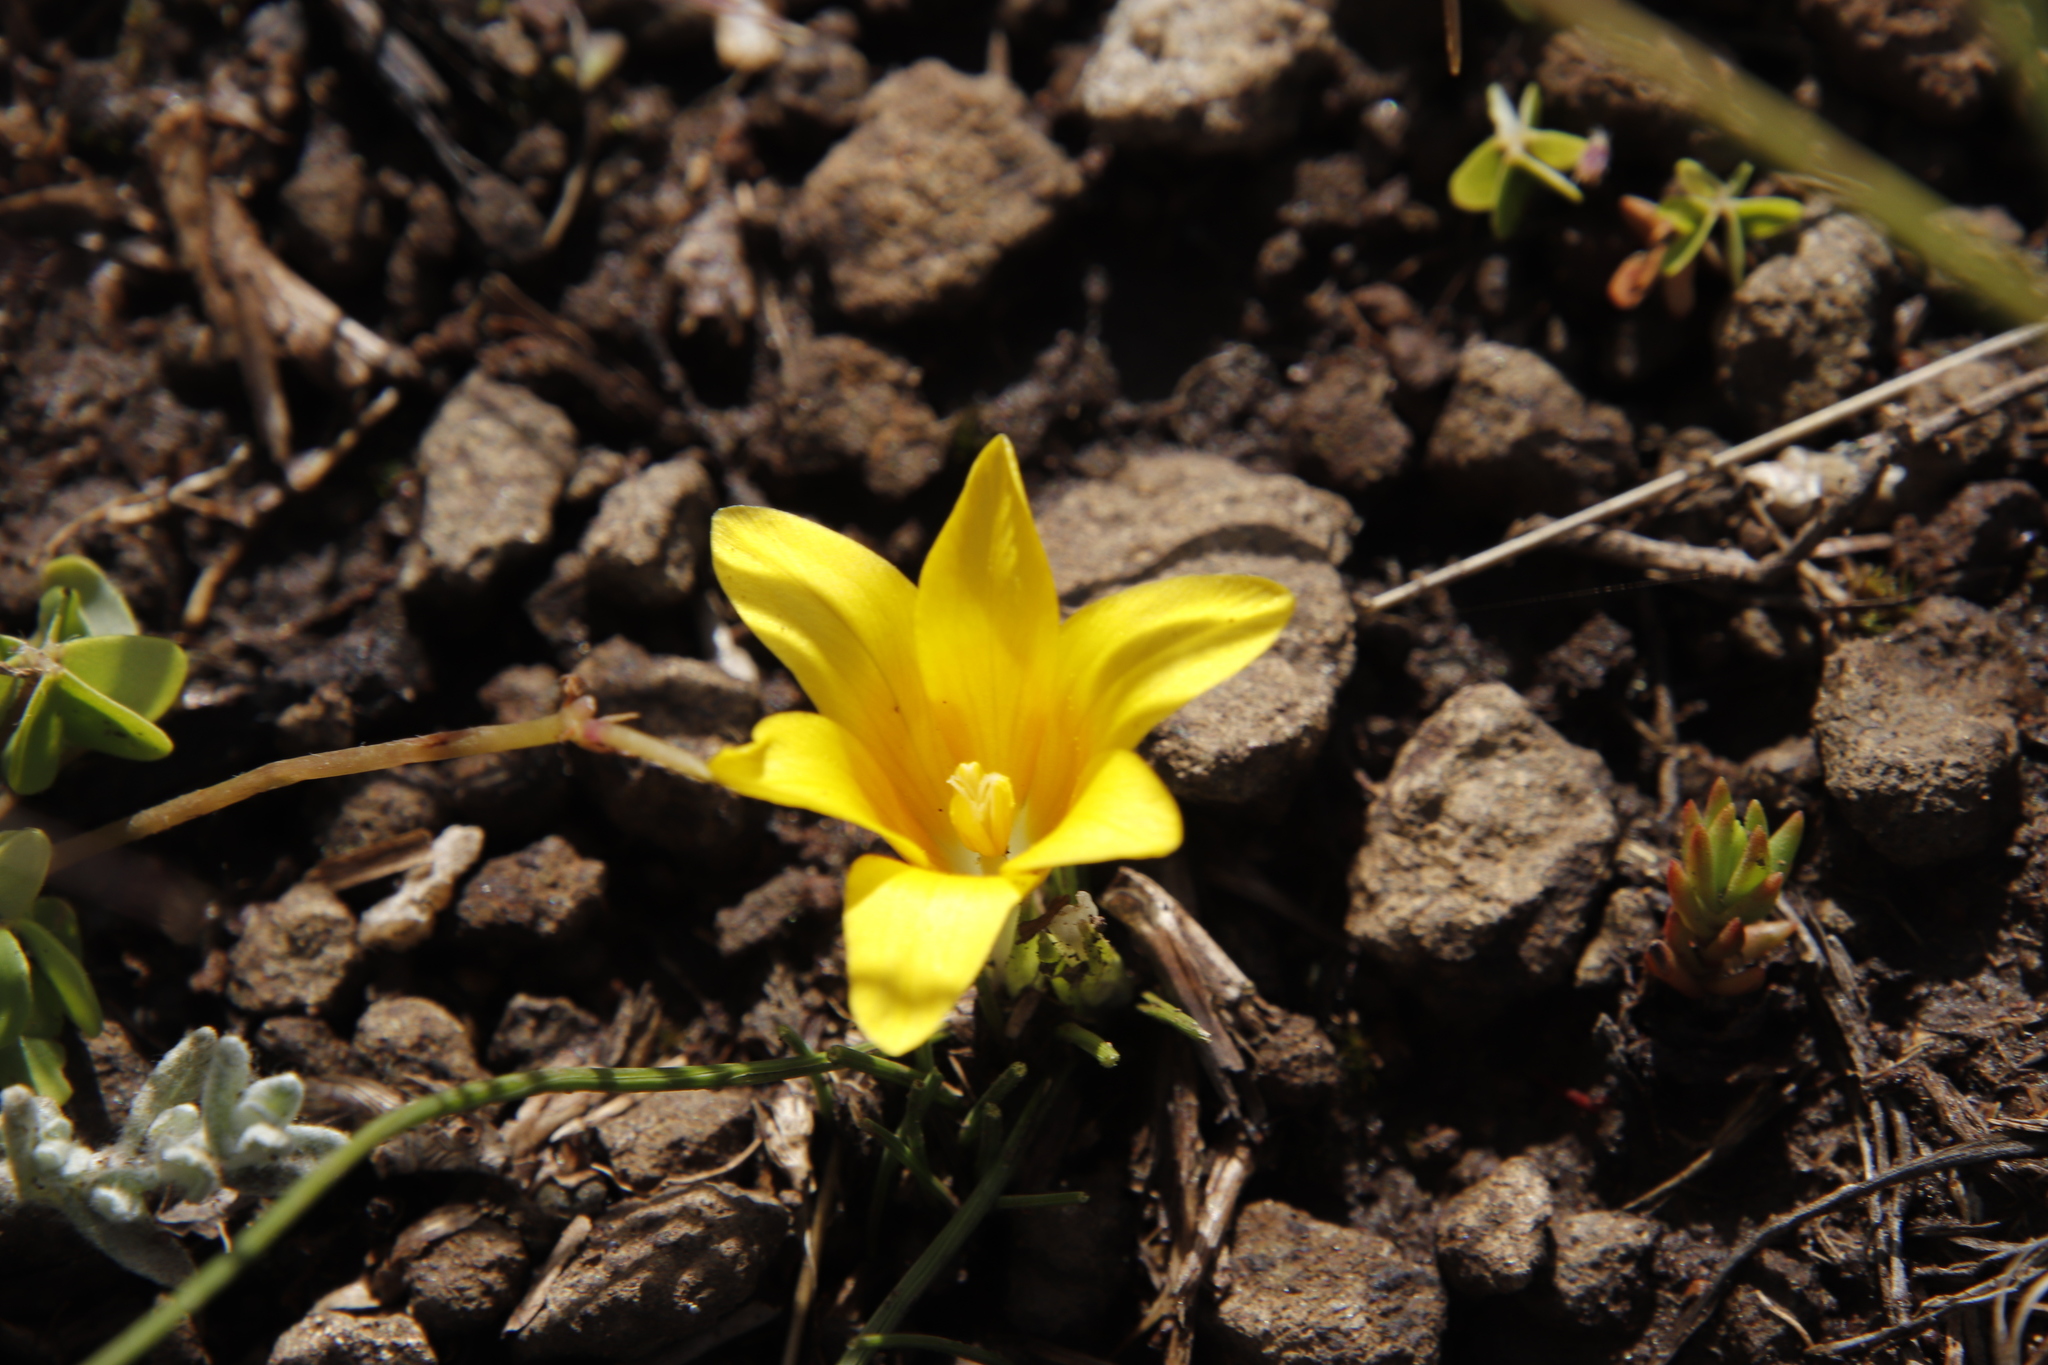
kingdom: Plantae
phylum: Tracheophyta
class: Liliopsida
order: Asparagales
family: Iridaceae
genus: Romulea
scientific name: Romulea macowanii
